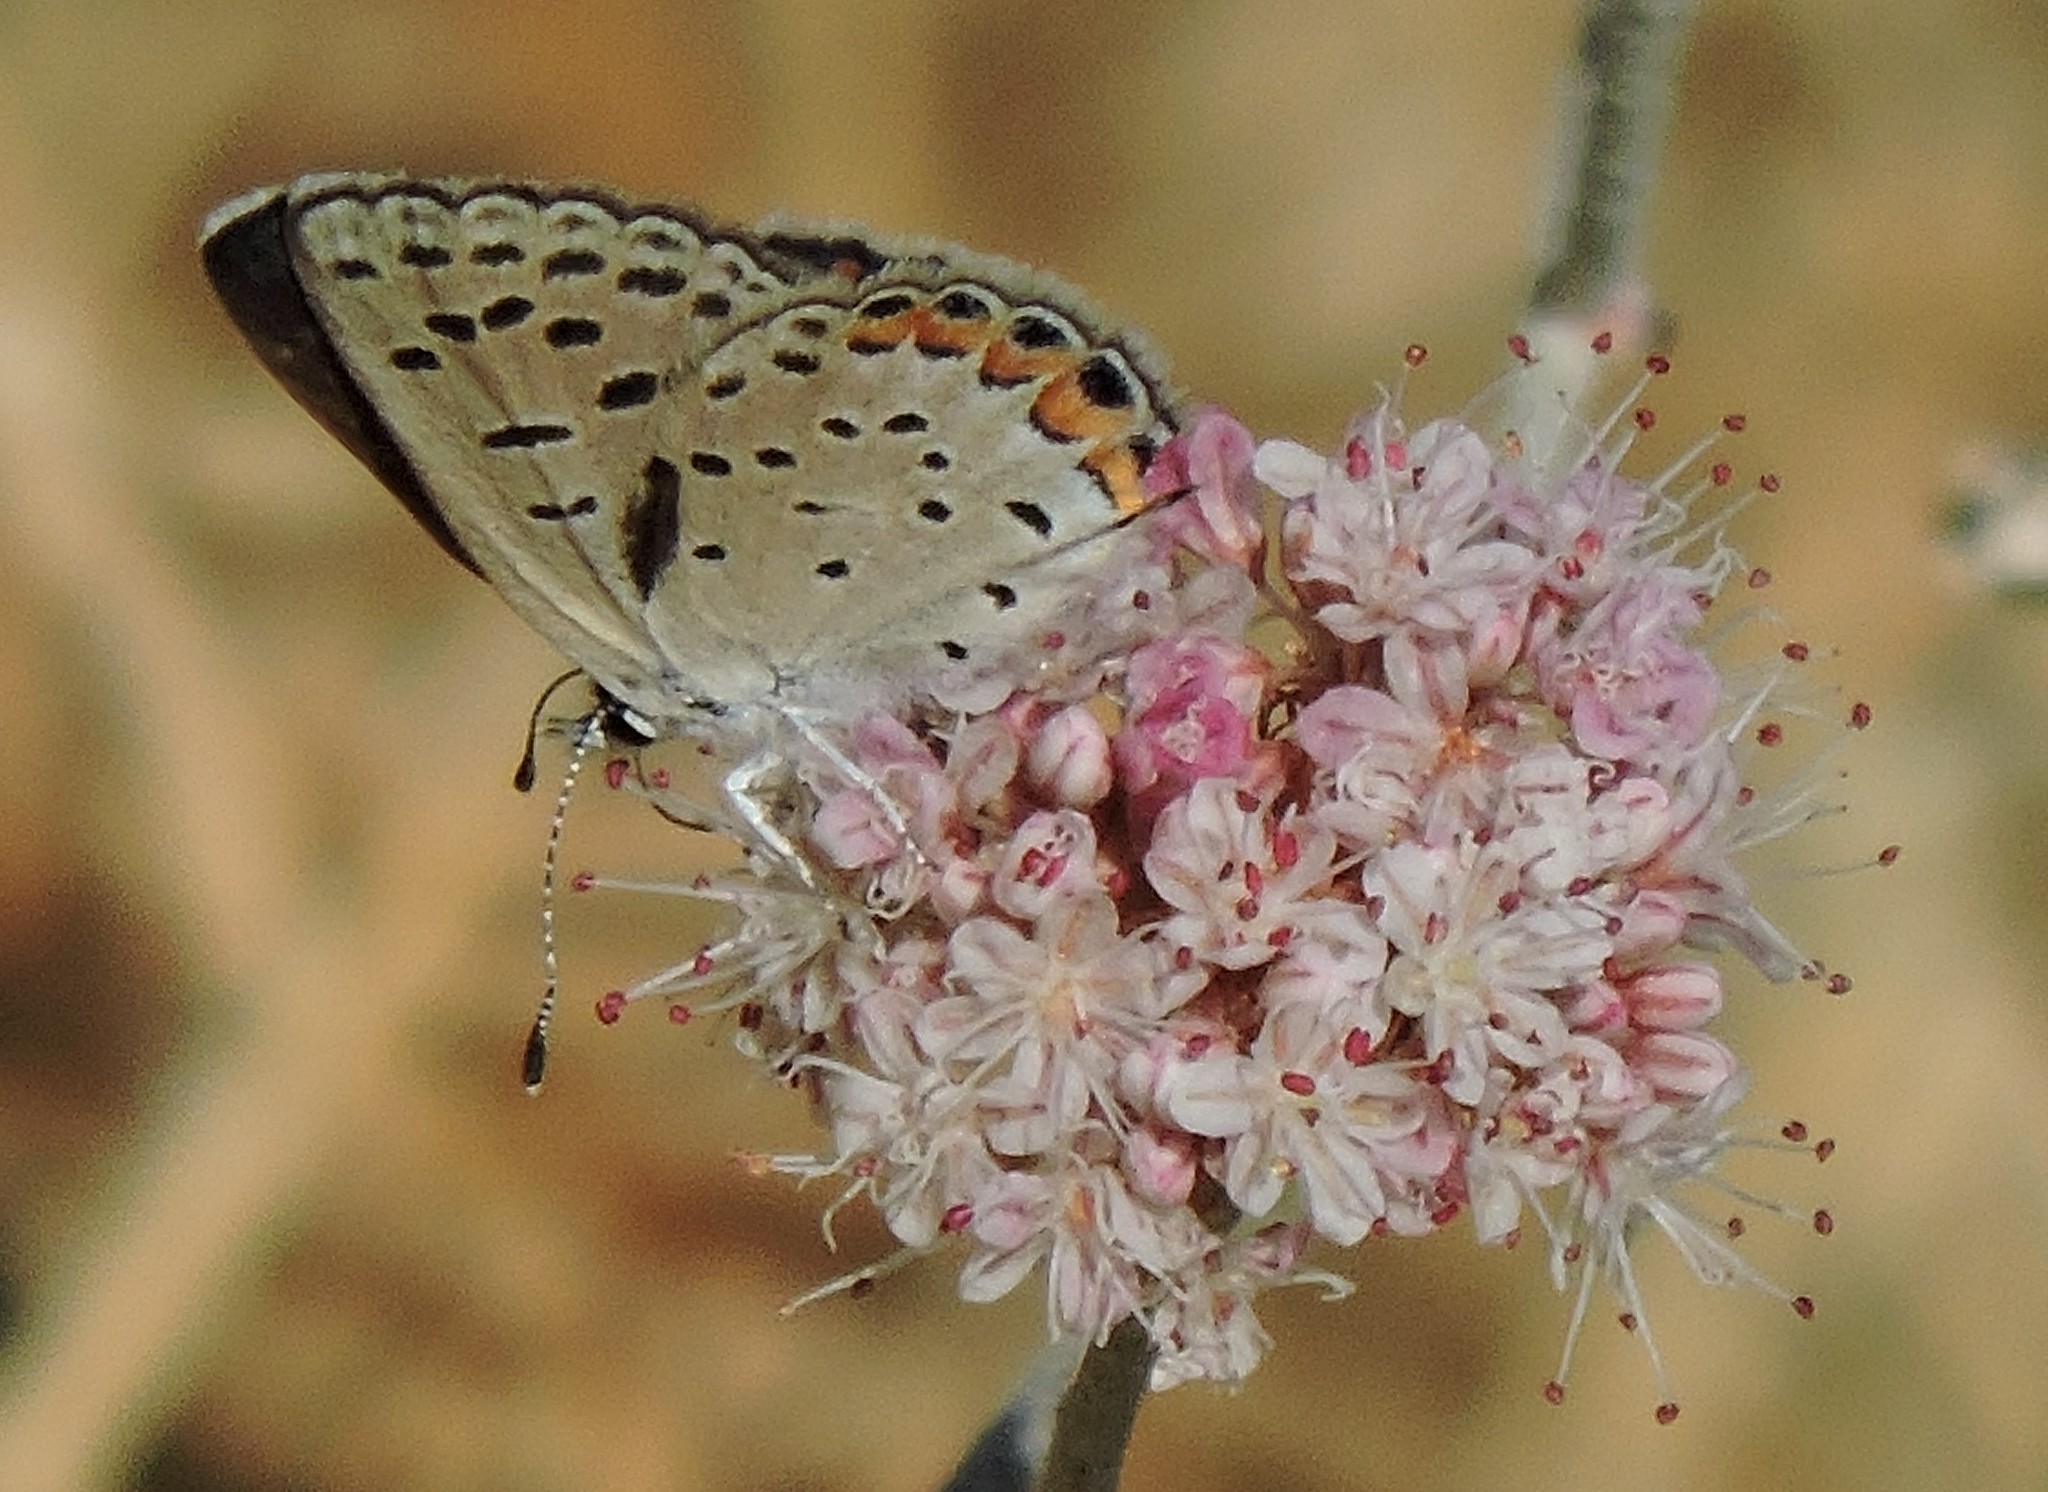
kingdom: Animalia
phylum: Arthropoda
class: Insecta
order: Lepidoptera
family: Lycaenidae
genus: Icaricia
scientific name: Icaricia acmon
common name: Acmon blue
